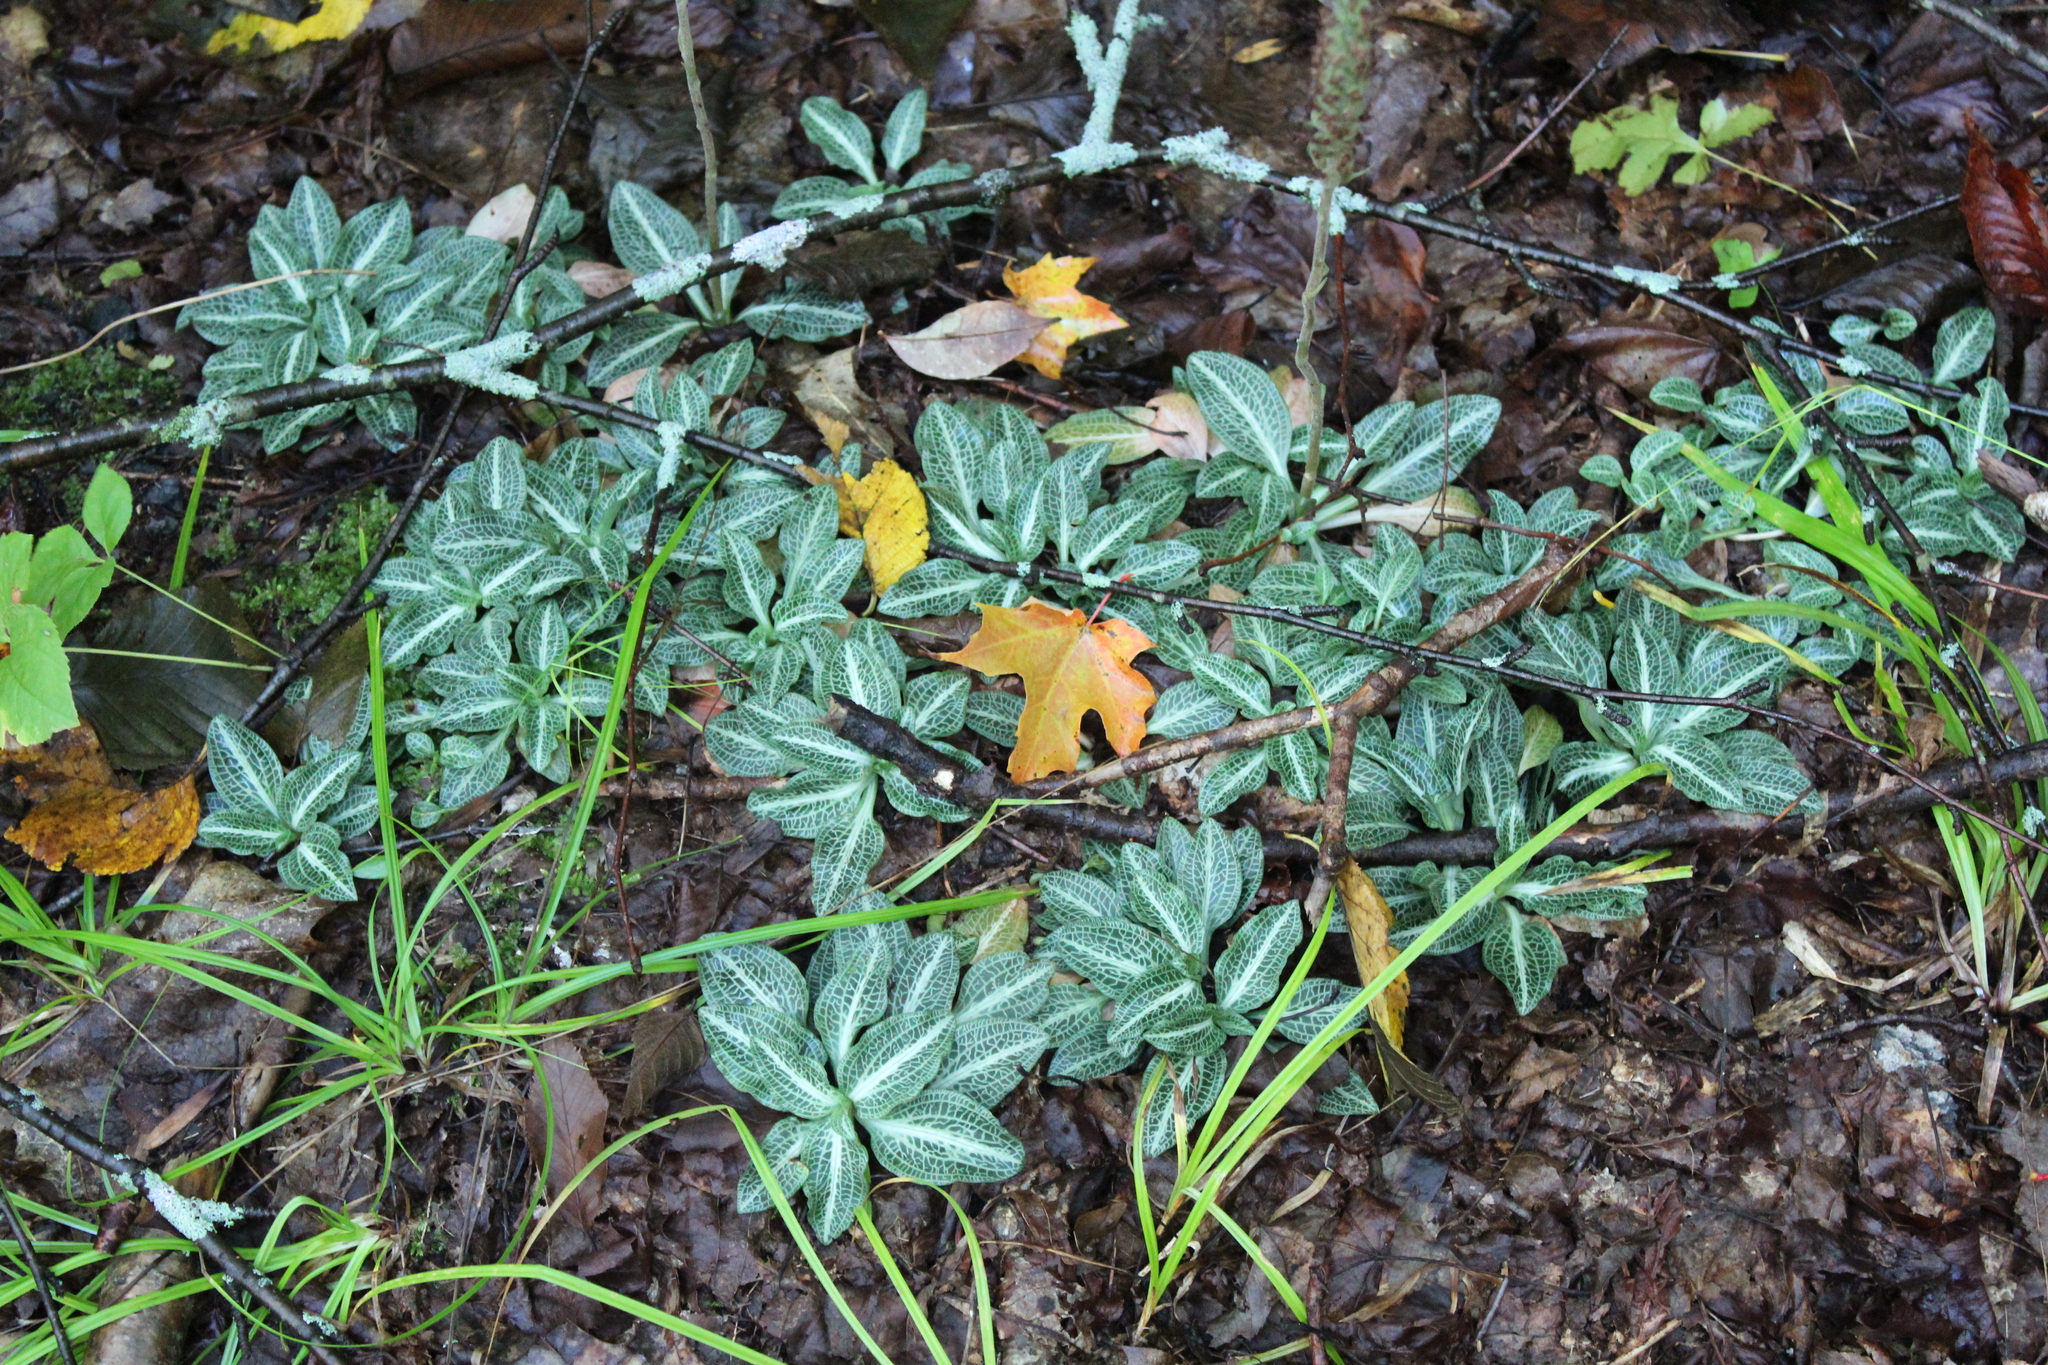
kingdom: Plantae
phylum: Tracheophyta
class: Liliopsida
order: Asparagales
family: Orchidaceae
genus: Goodyera
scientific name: Goodyera pubescens
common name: Downy rattlesnake-plantain
